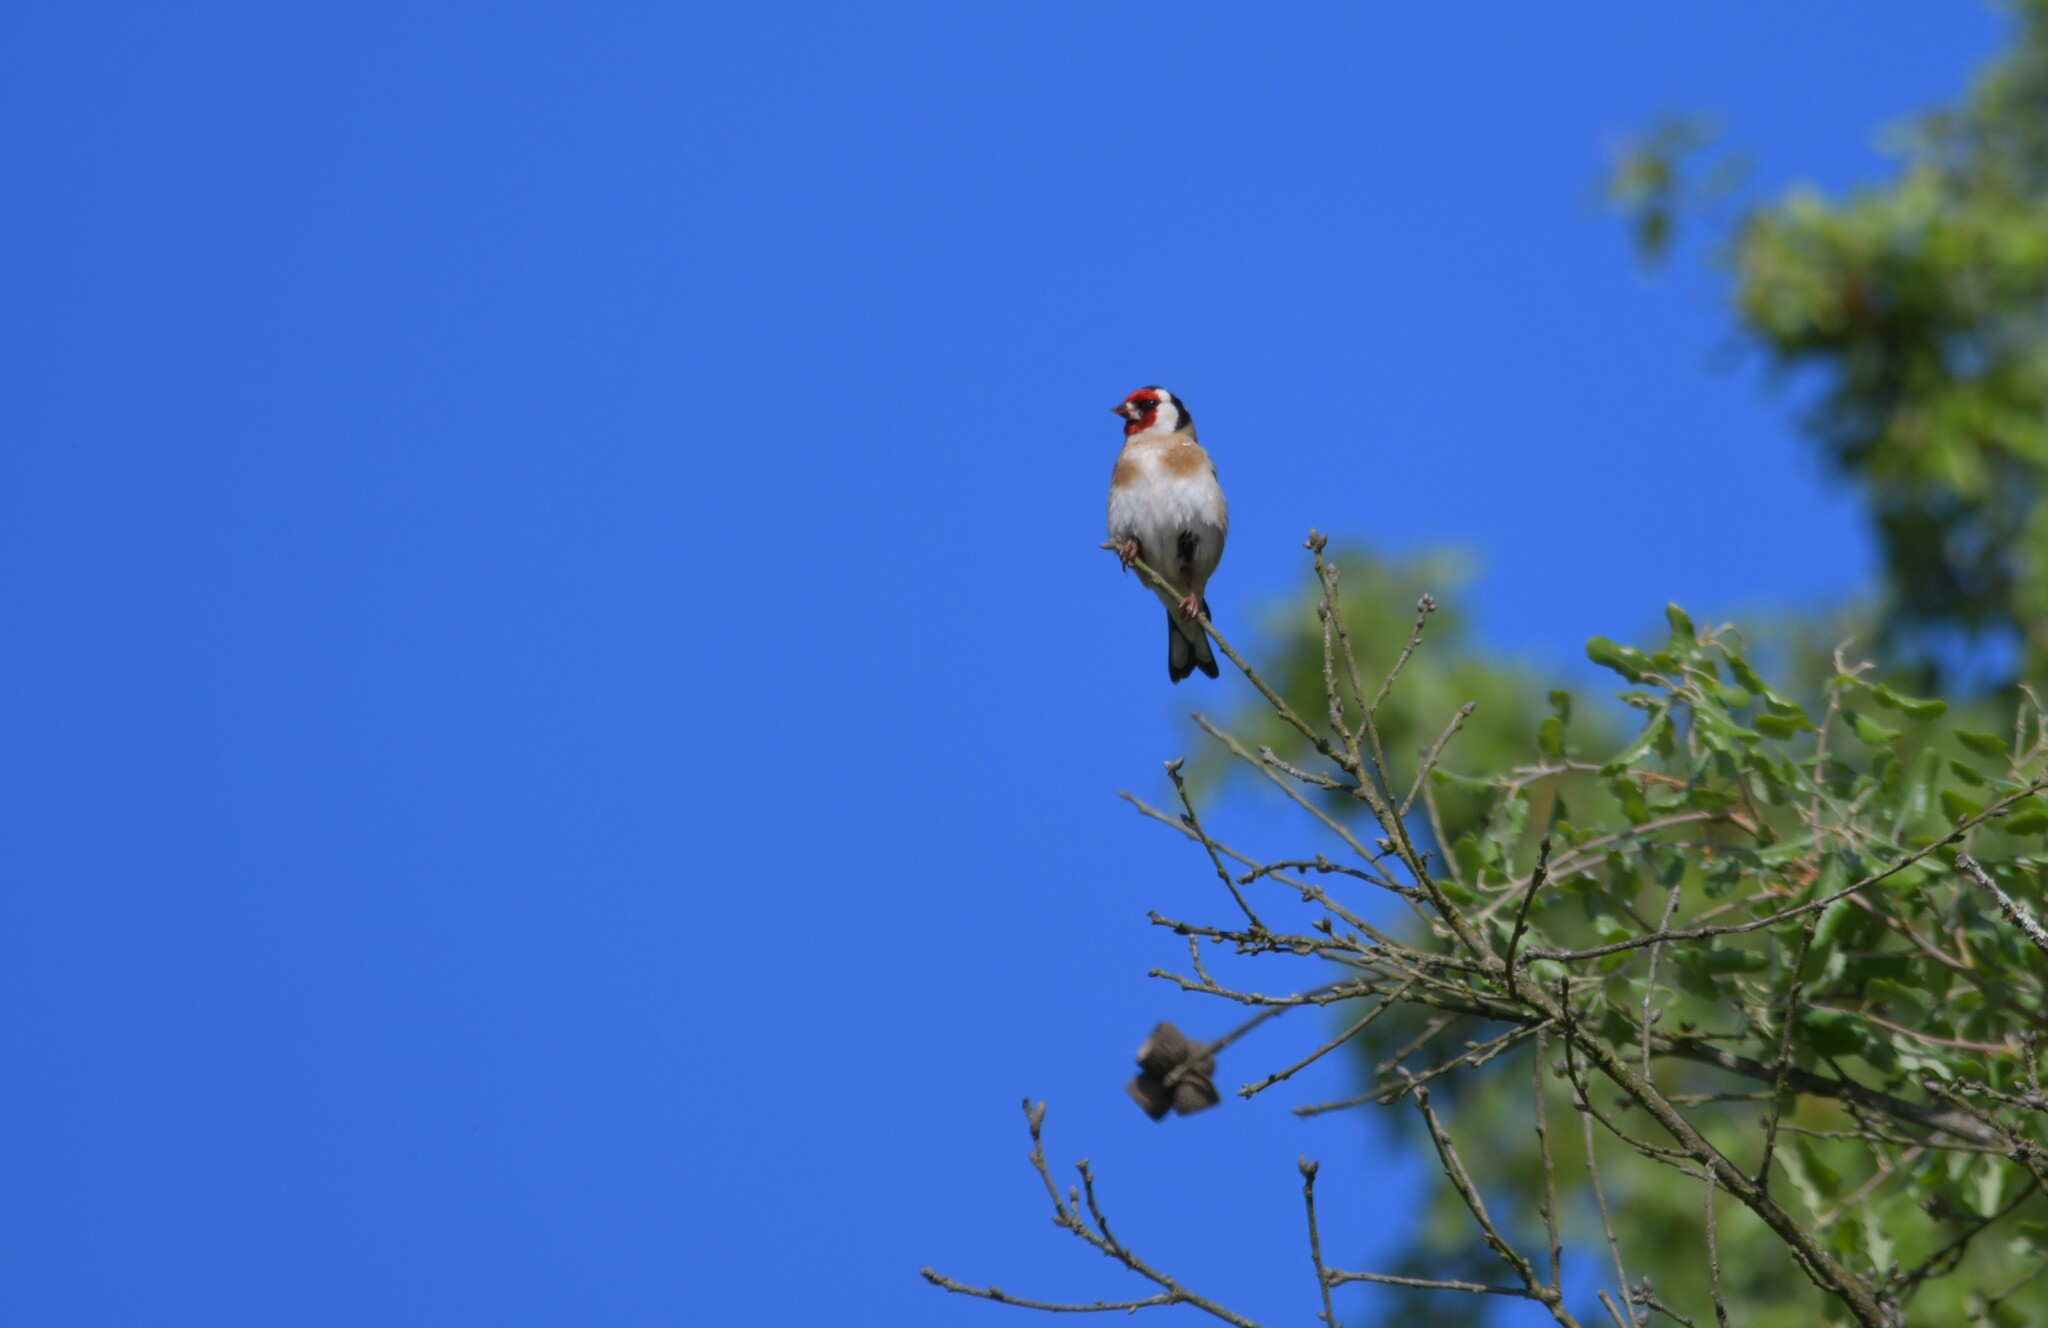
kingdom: Animalia
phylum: Chordata
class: Aves
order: Passeriformes
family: Fringillidae
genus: Carduelis
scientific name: Carduelis carduelis
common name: European goldfinch
